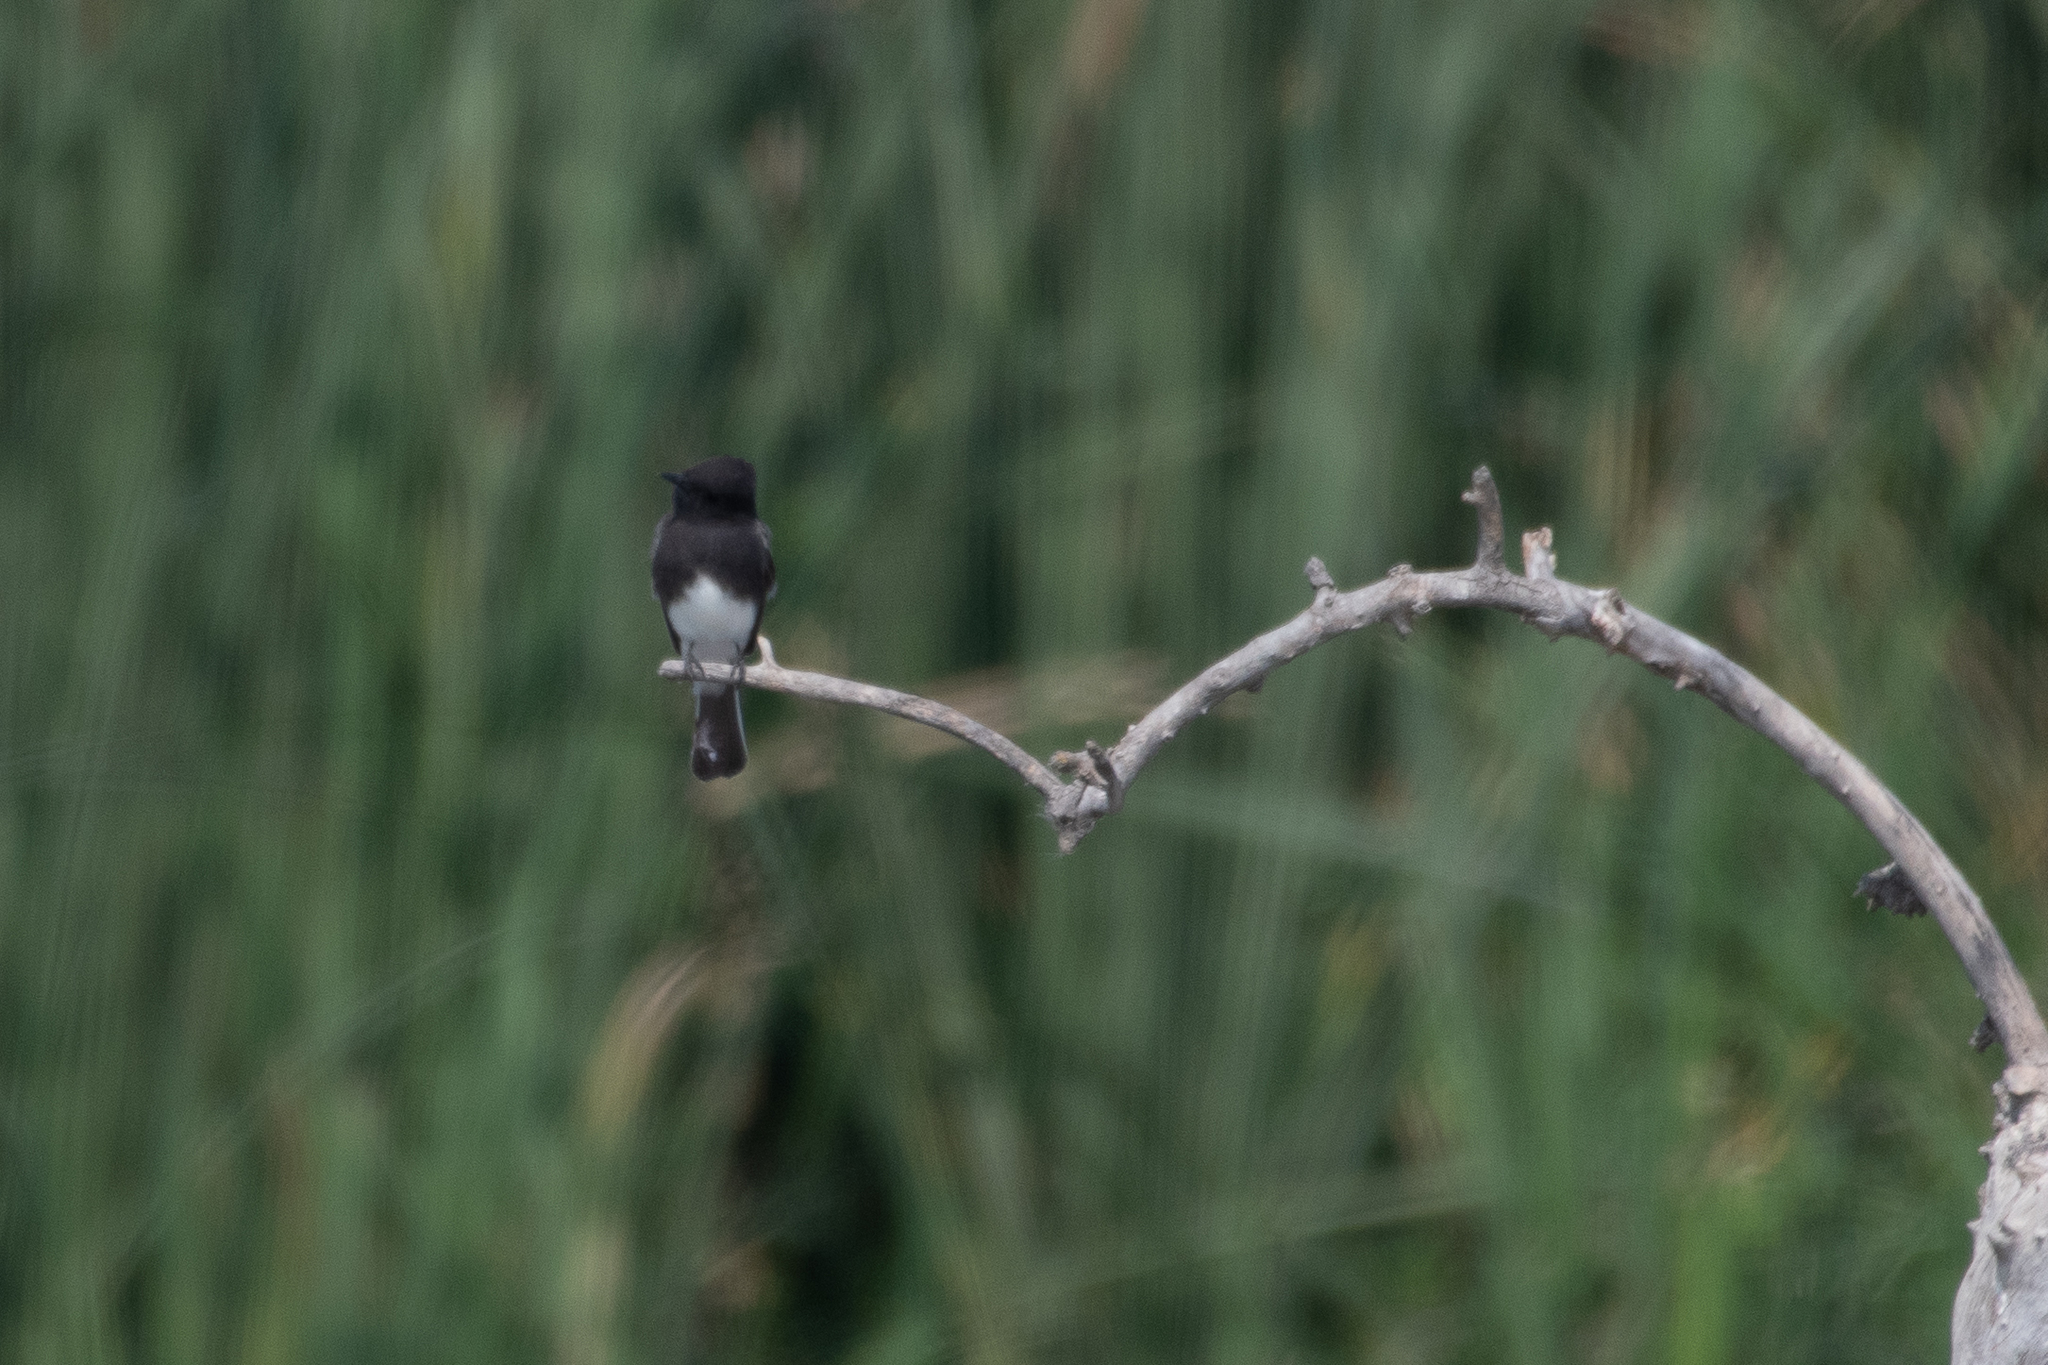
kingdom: Animalia
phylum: Chordata
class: Aves
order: Passeriformes
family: Tyrannidae
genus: Sayornis
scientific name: Sayornis nigricans
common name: Black phoebe
